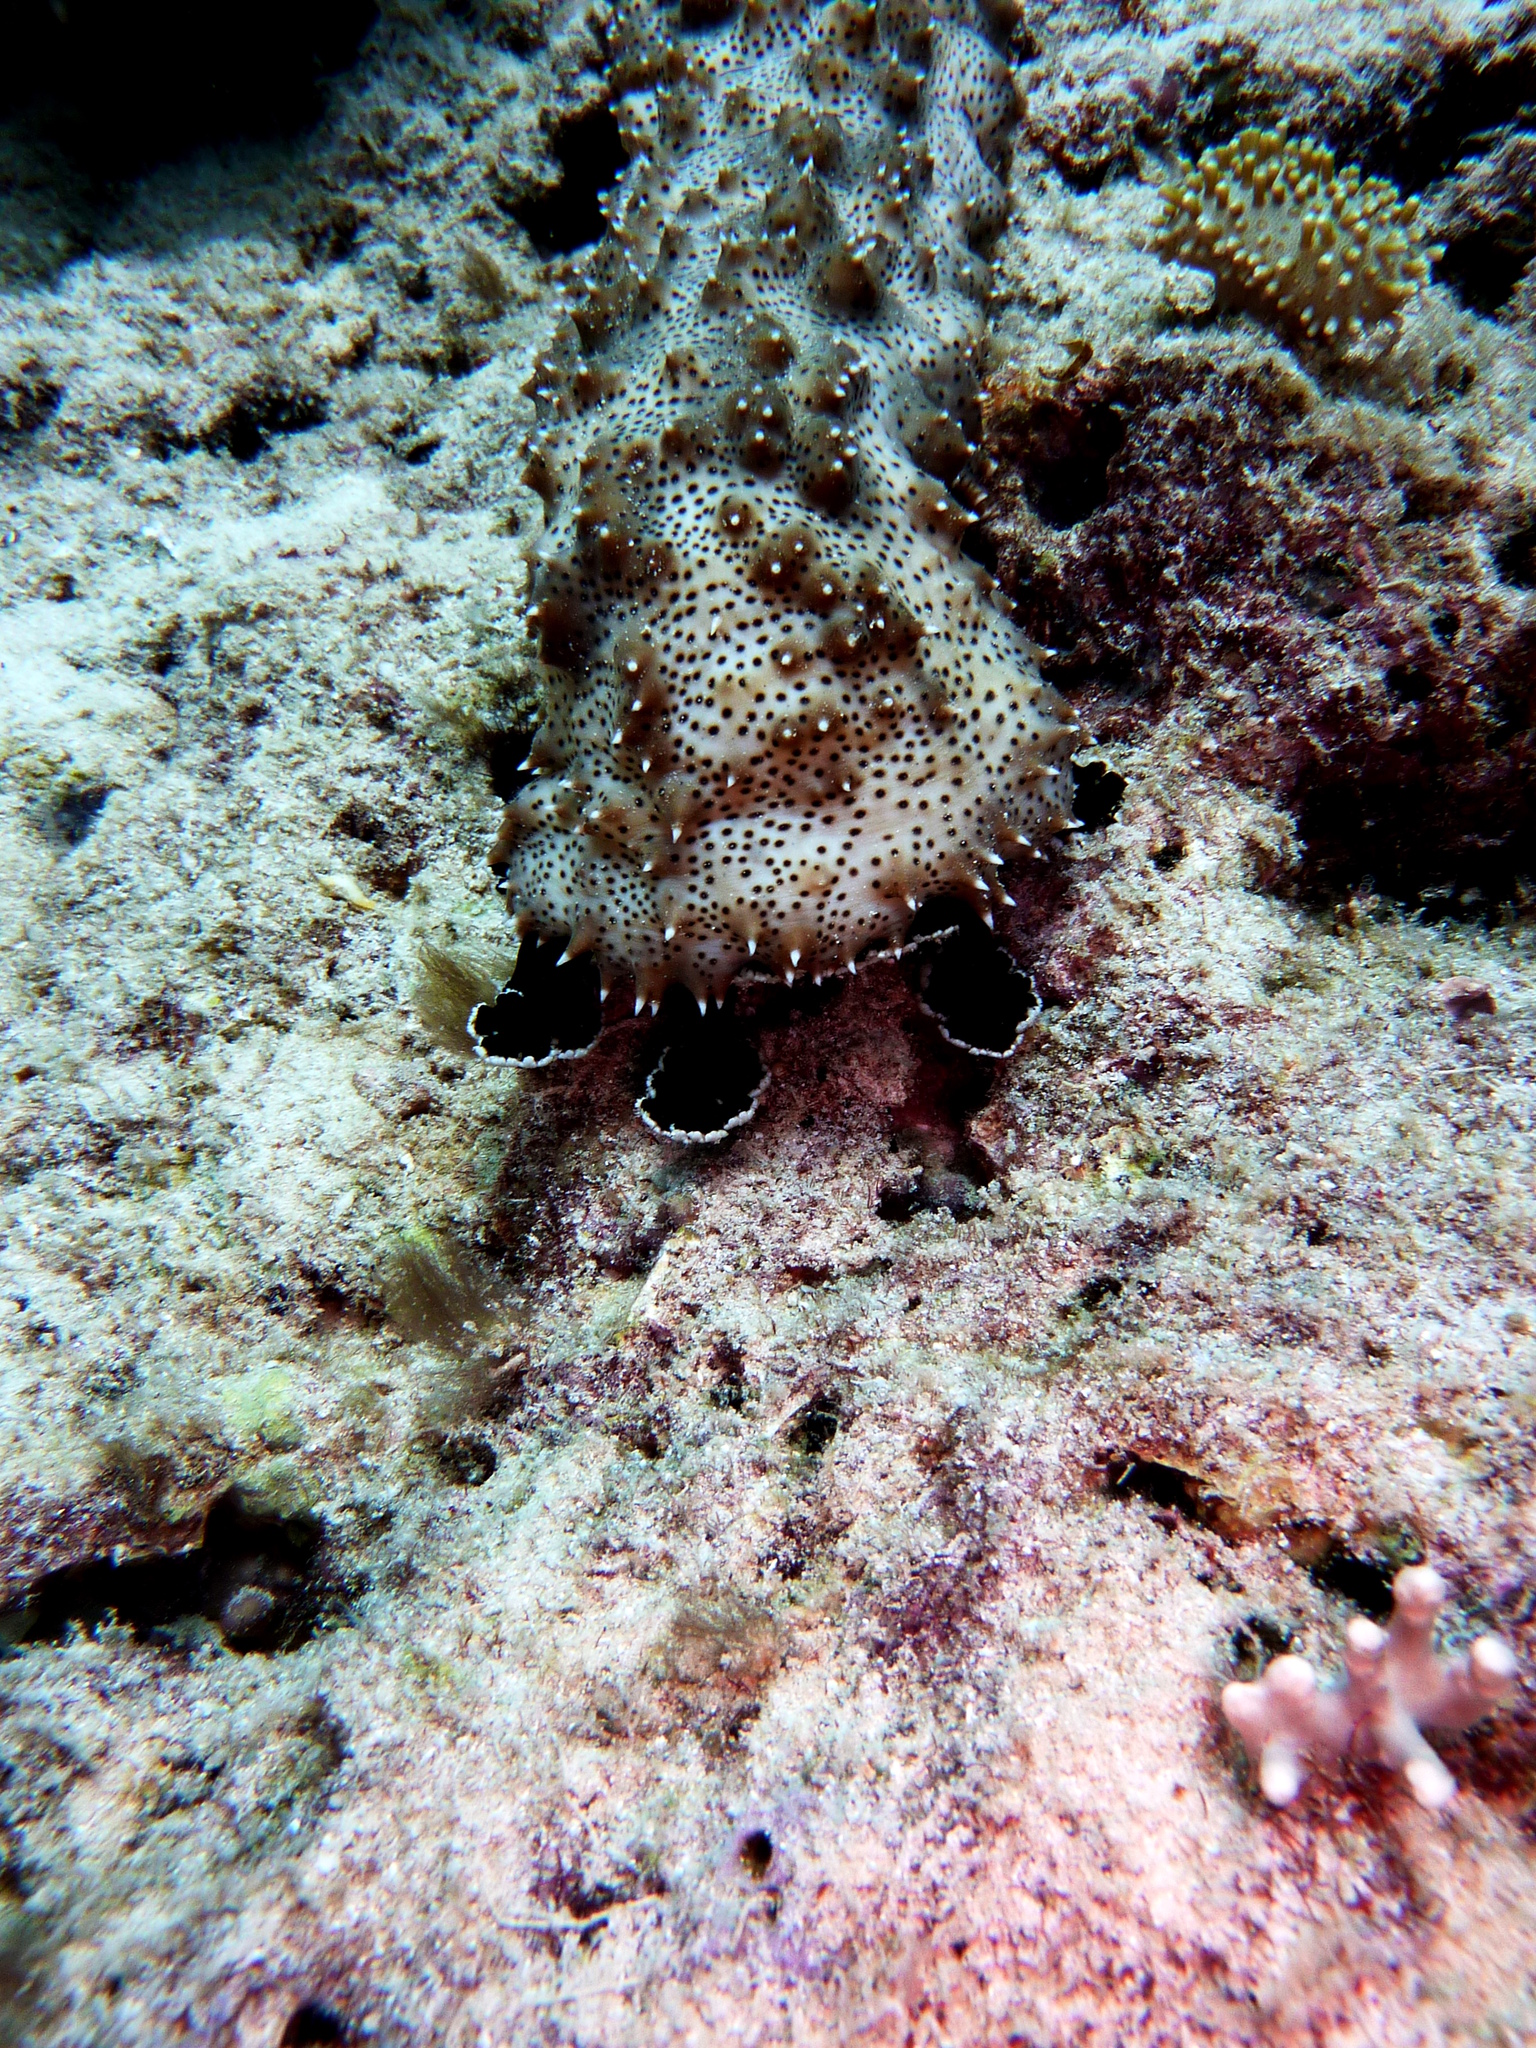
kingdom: Animalia
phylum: Echinodermata
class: Holothuroidea
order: Holothuriida
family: Holothuriidae
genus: Pearsonothuria
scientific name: Pearsonothuria graeffei
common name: Blackspotted sea cucumber
